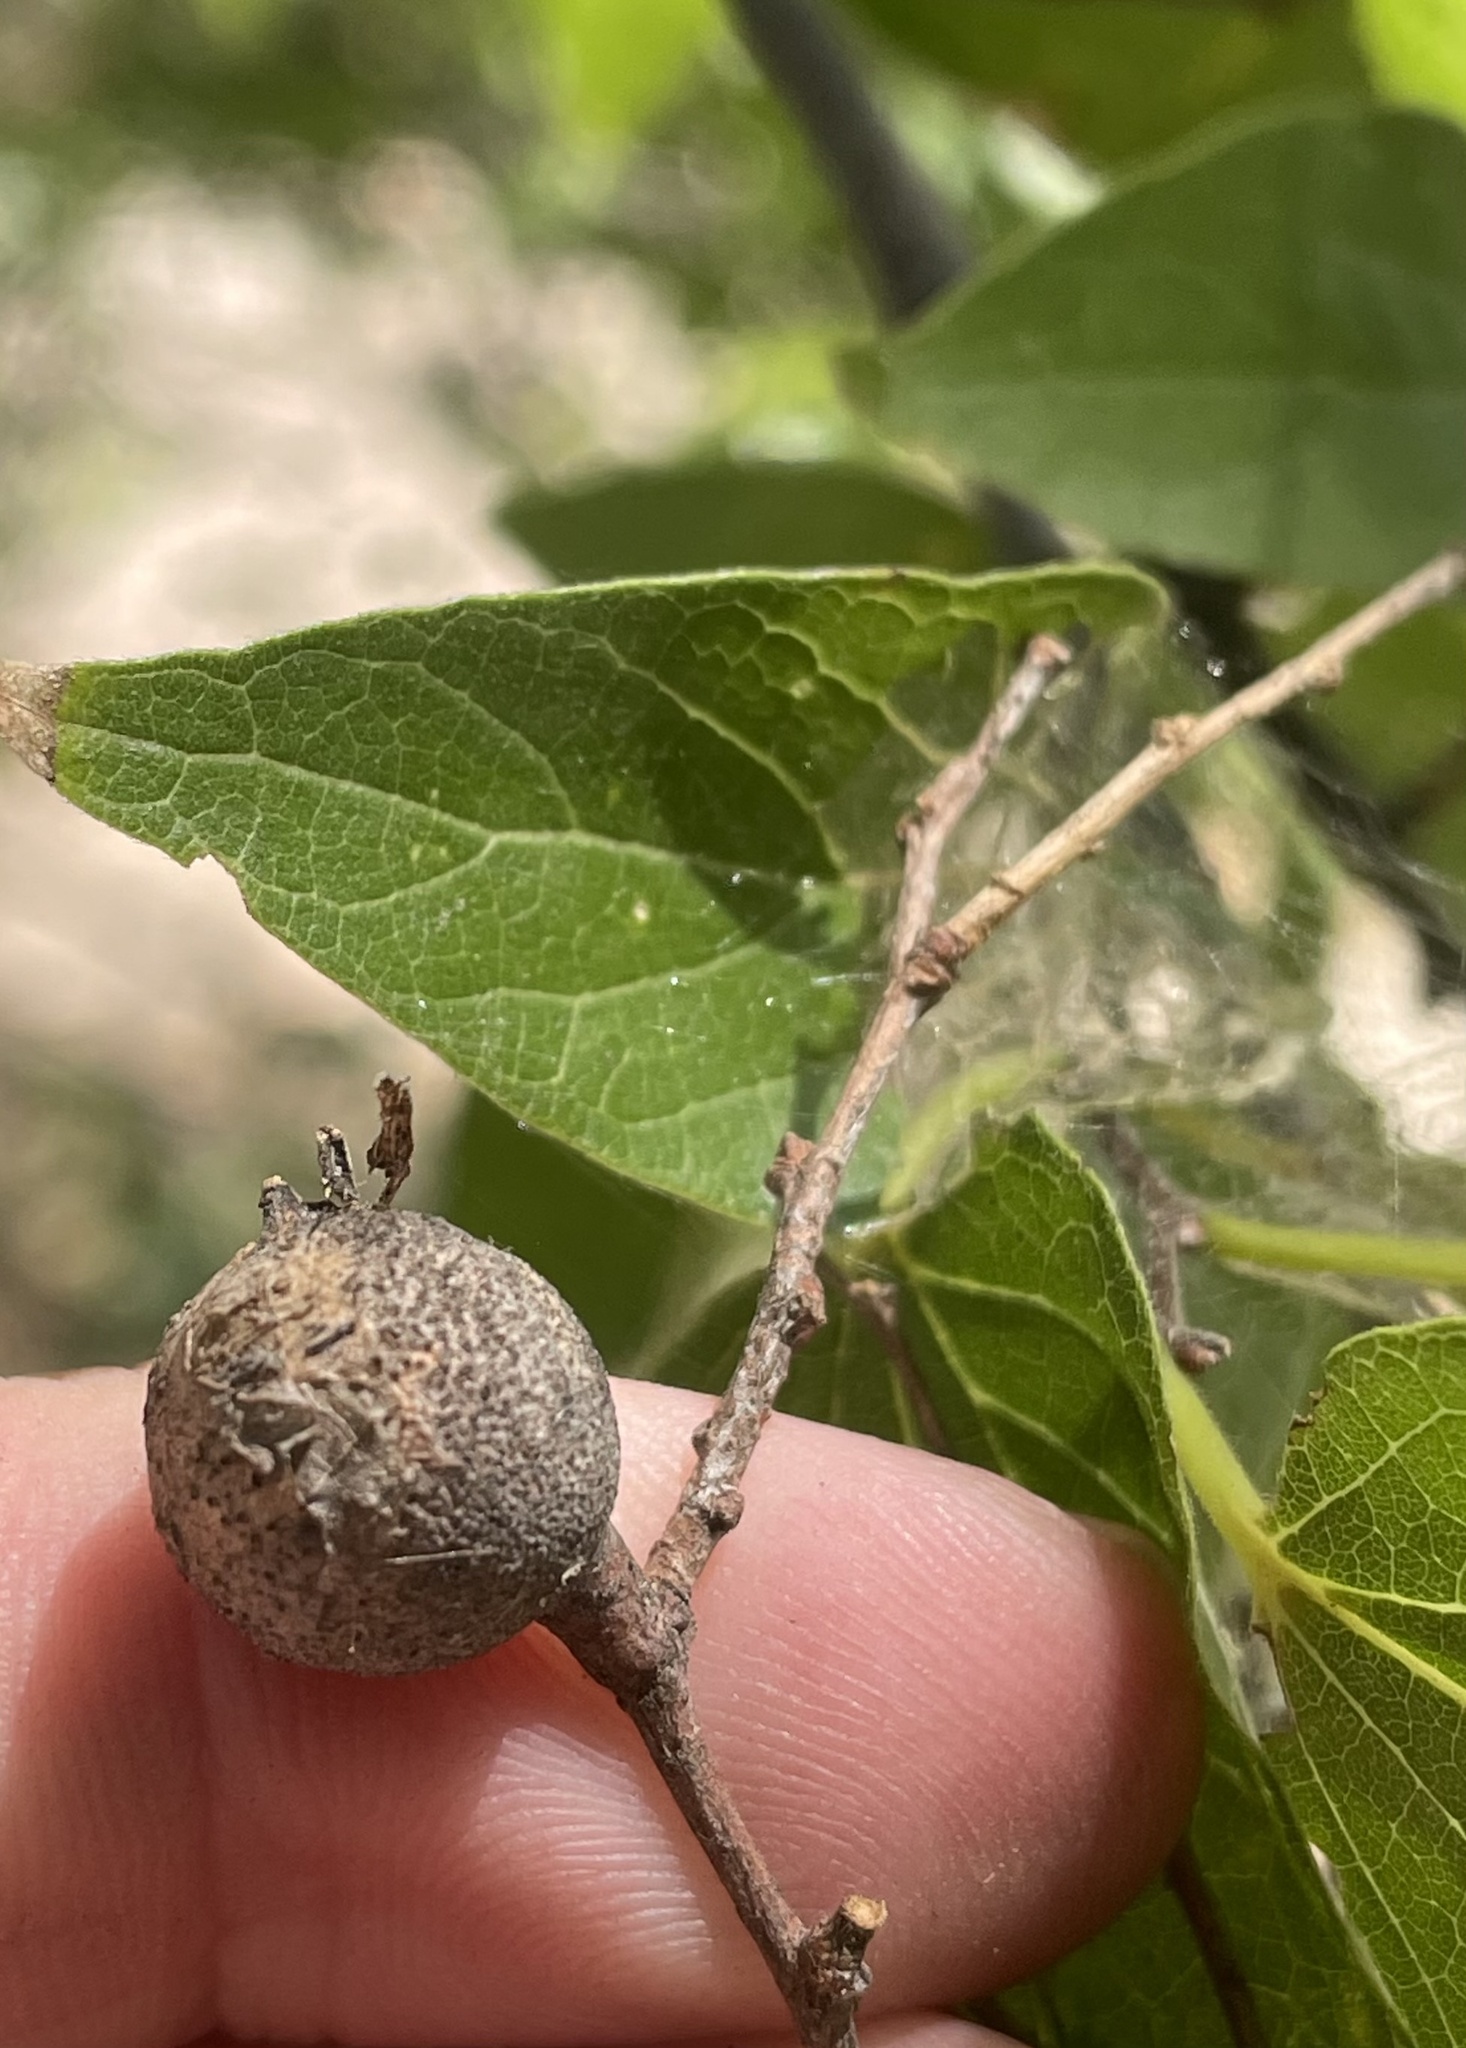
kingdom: Animalia
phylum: Arthropoda
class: Insecta
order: Hemiptera
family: Aphalaridae
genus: Pachypsylla
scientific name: Pachypsylla venusta
